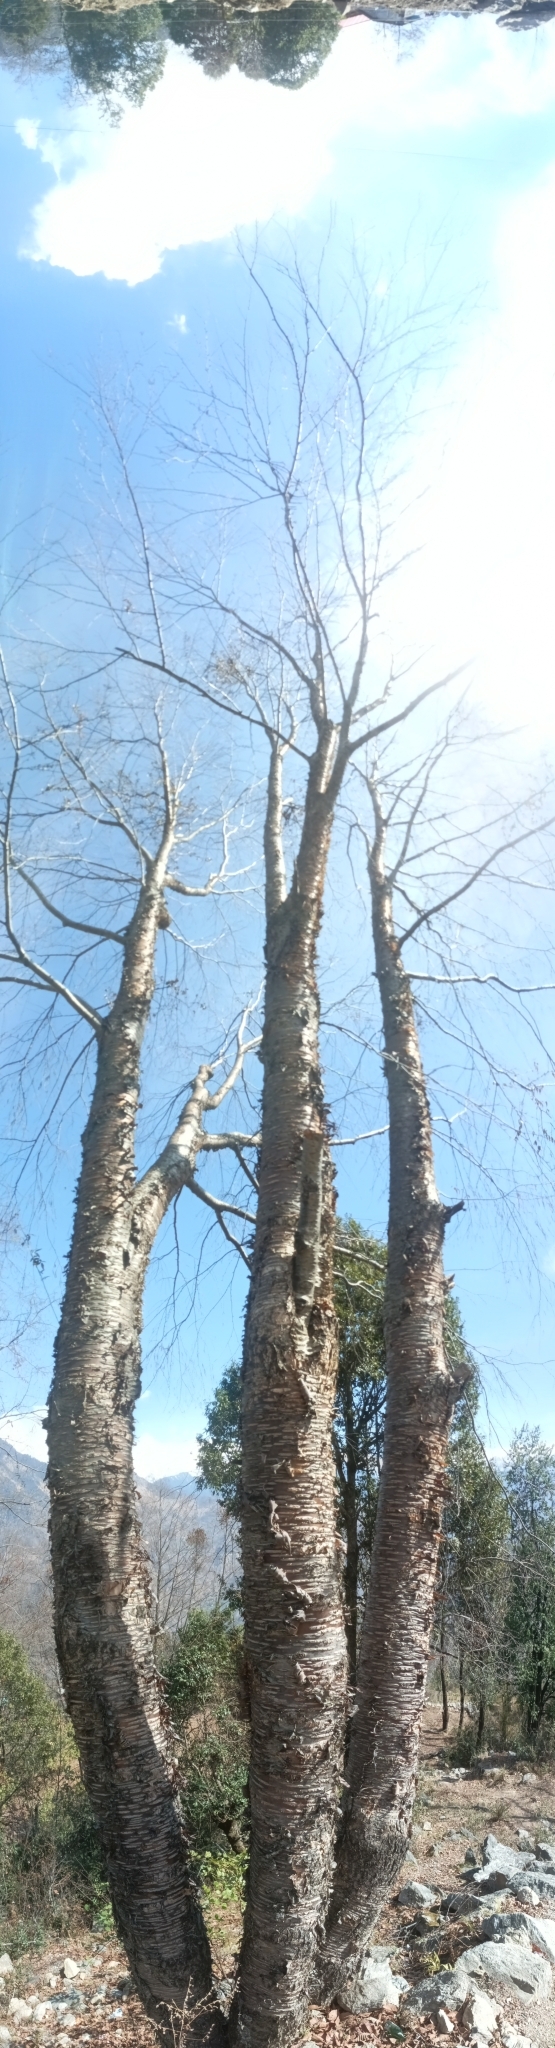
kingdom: Plantae
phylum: Tracheophyta
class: Magnoliopsida
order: Fagales
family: Betulaceae
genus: Betula
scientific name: Betula alnoides
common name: Indian birch
